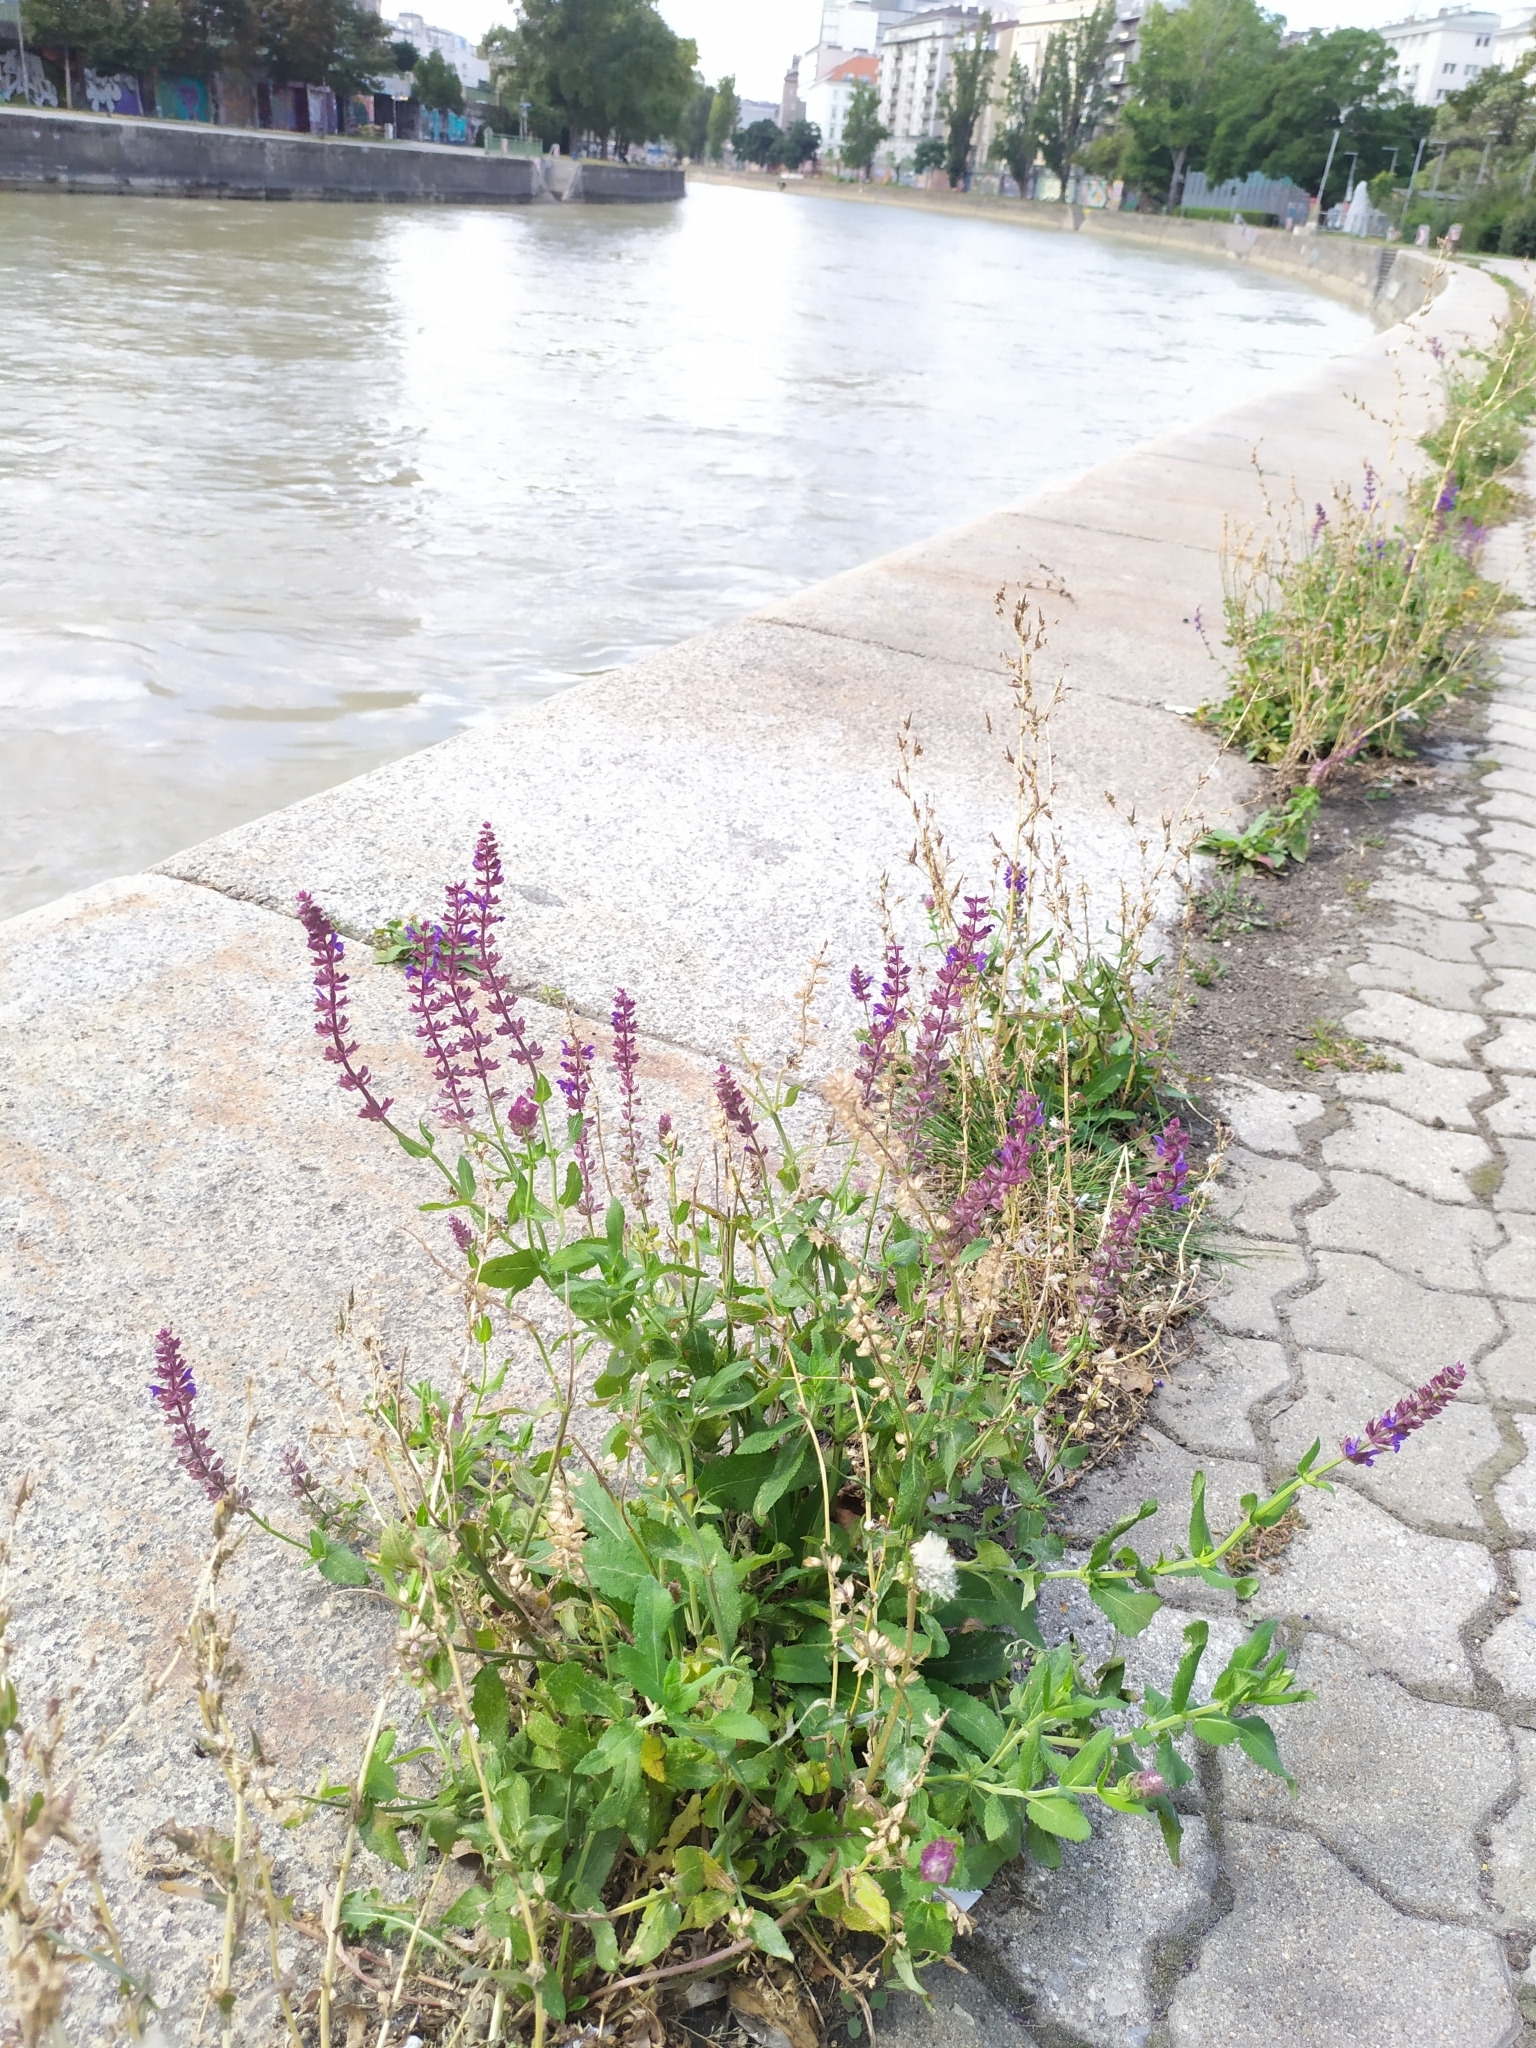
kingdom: Plantae
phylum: Tracheophyta
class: Magnoliopsida
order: Lamiales
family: Lamiaceae
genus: Salvia
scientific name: Salvia nemorosa
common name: Balkan clary
